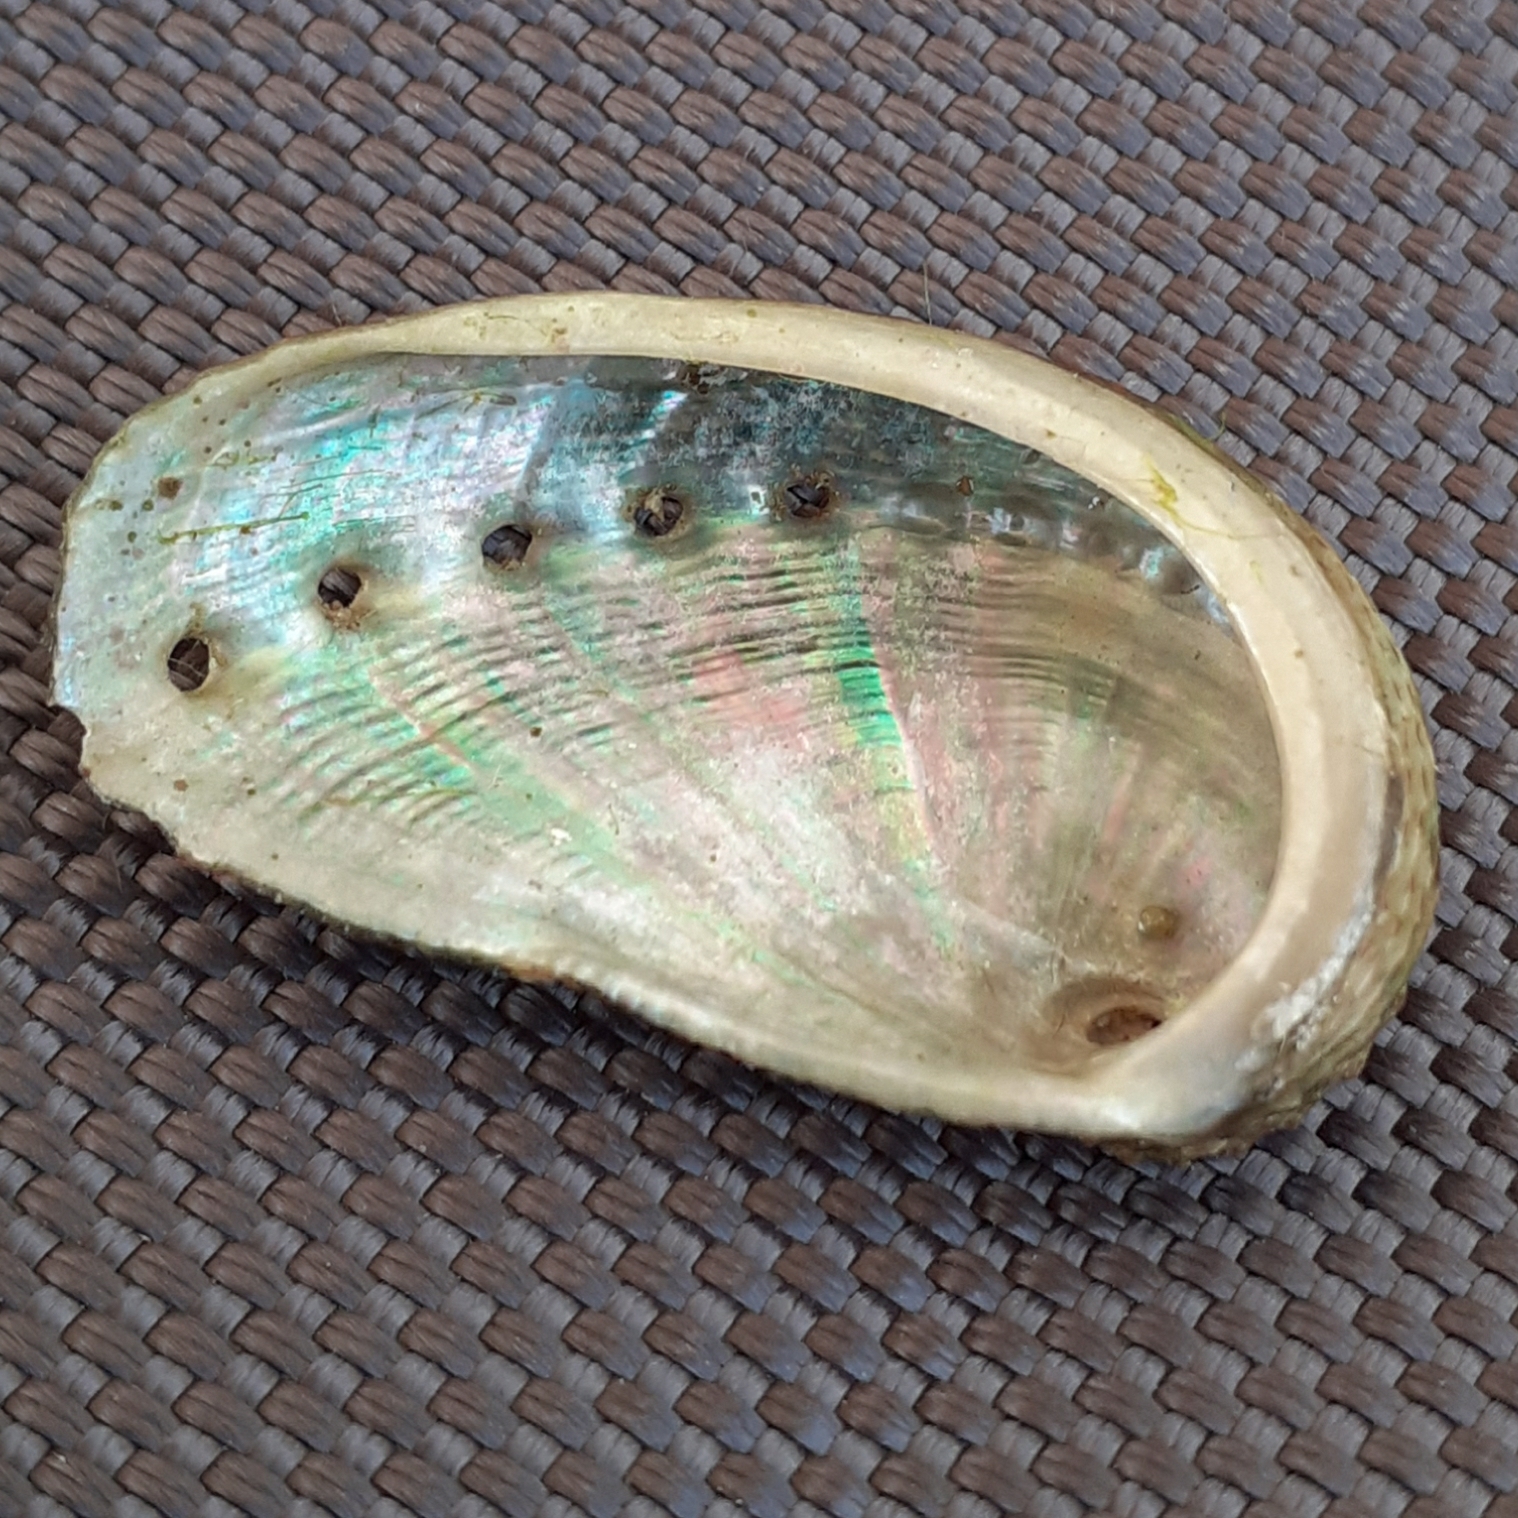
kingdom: Animalia
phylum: Mollusca
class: Gastropoda
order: Lepetellida
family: Haliotidae
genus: Haliotis
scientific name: Haliotis tuberculata
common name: Green ormer
